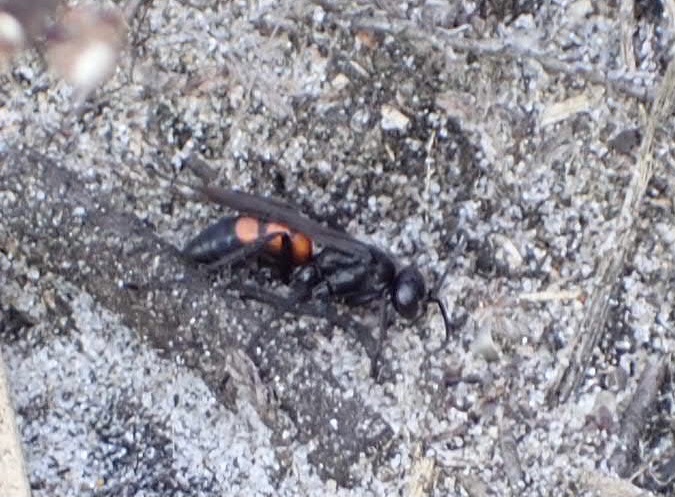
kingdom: Animalia
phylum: Arthropoda
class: Insecta
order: Hymenoptera
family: Pompilidae
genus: Anoplius
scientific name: Anoplius viaticus
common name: Black banded spider wasp
